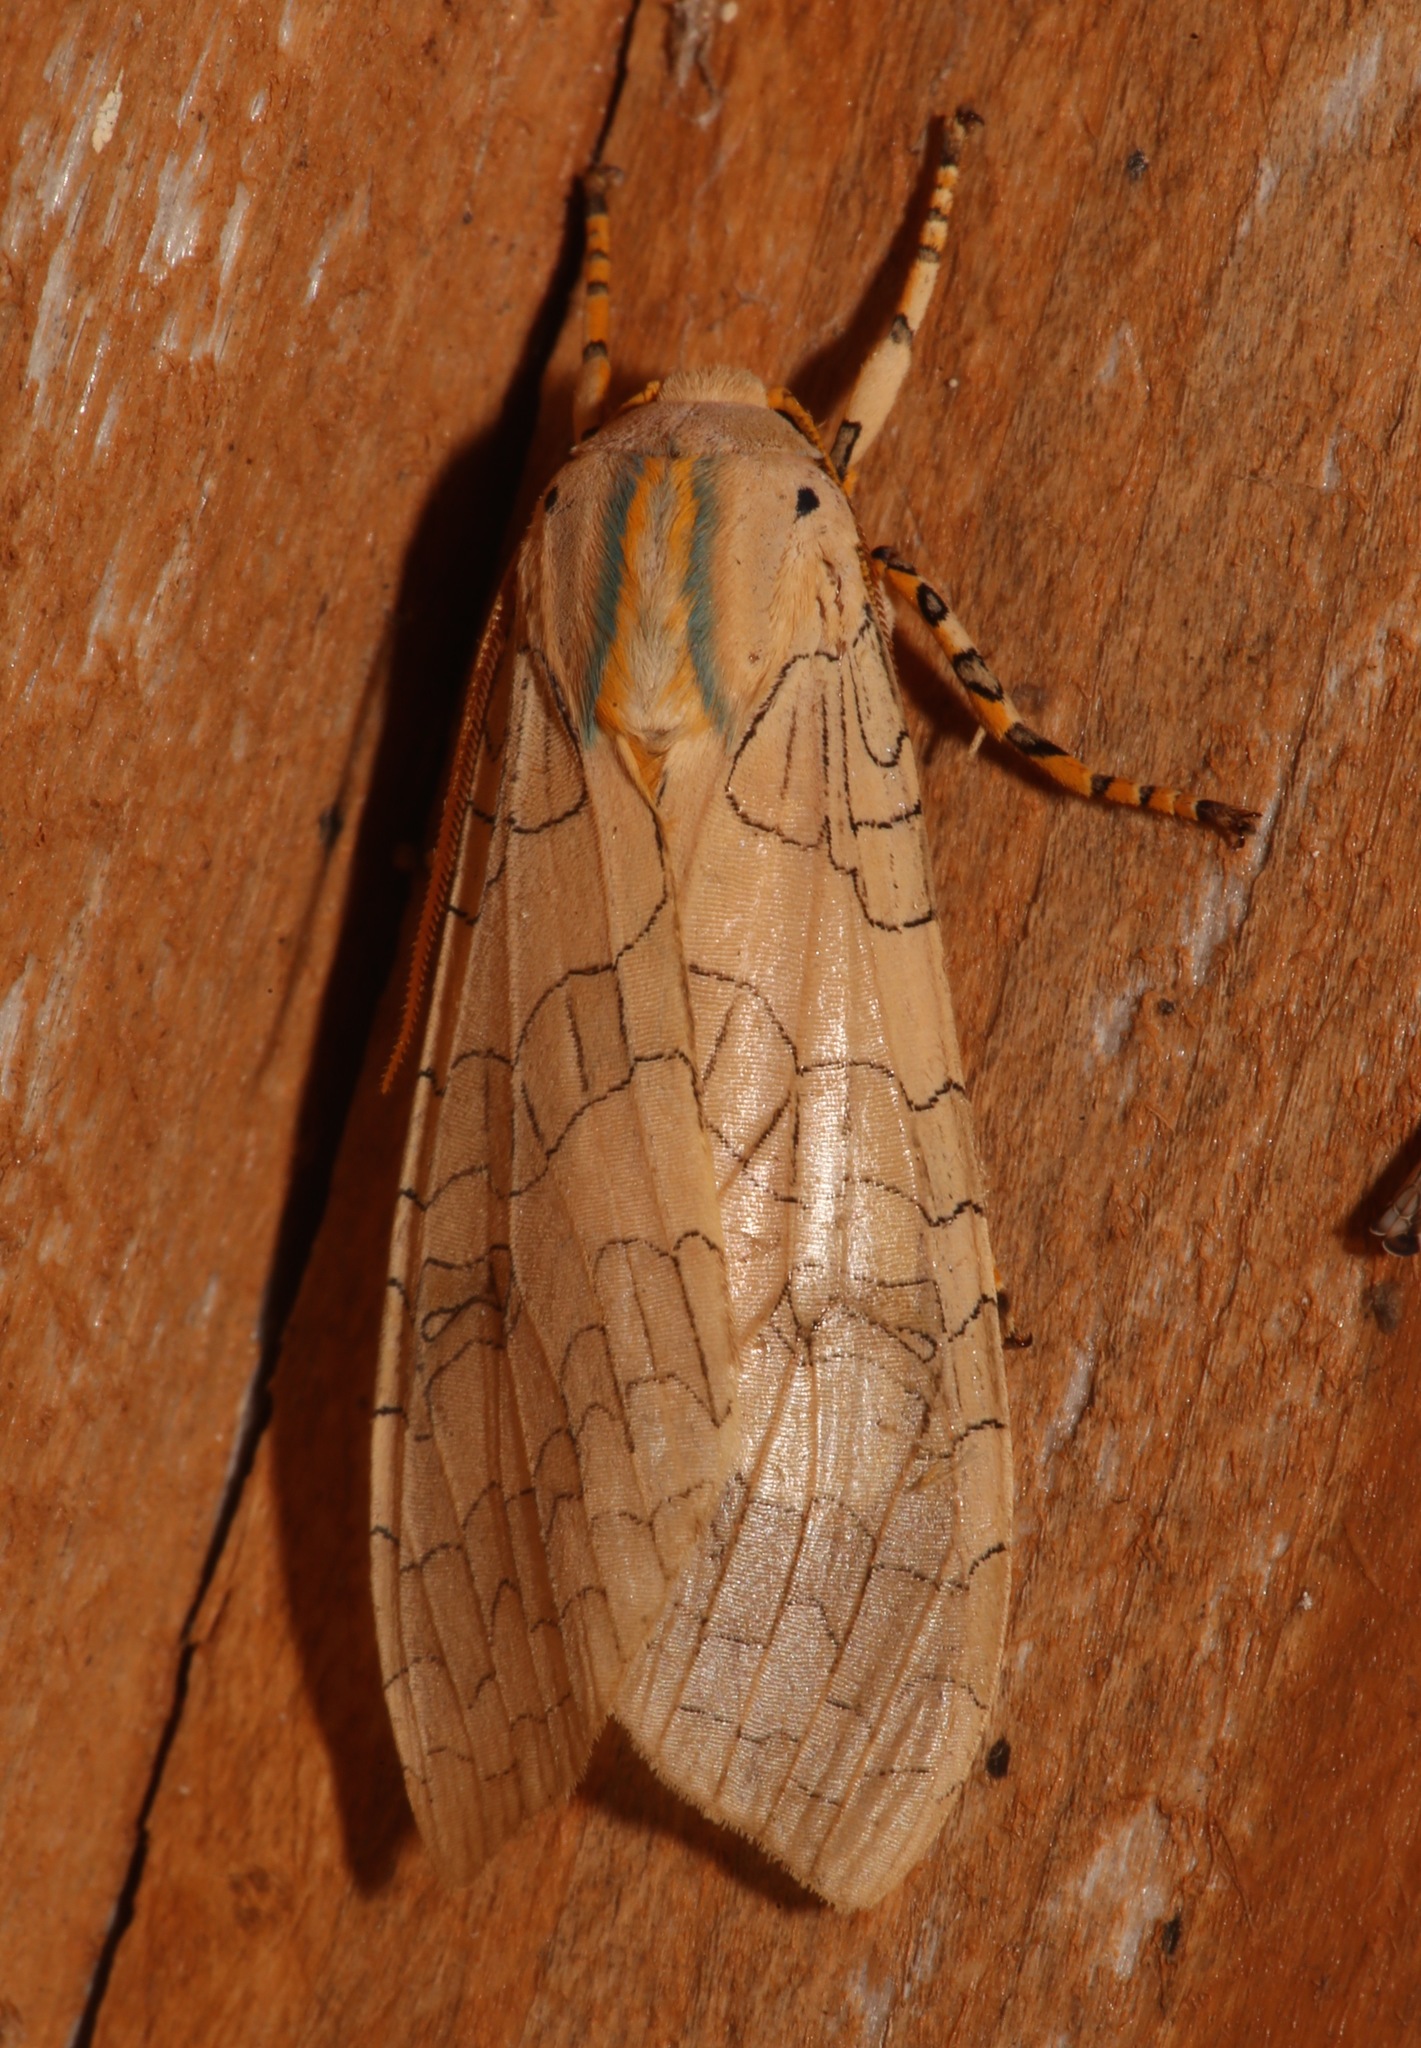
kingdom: Animalia
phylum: Arthropoda
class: Insecta
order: Lepidoptera
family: Erebidae
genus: Halysidota
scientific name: Halysidota tessellaris
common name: Banded tussock moth
